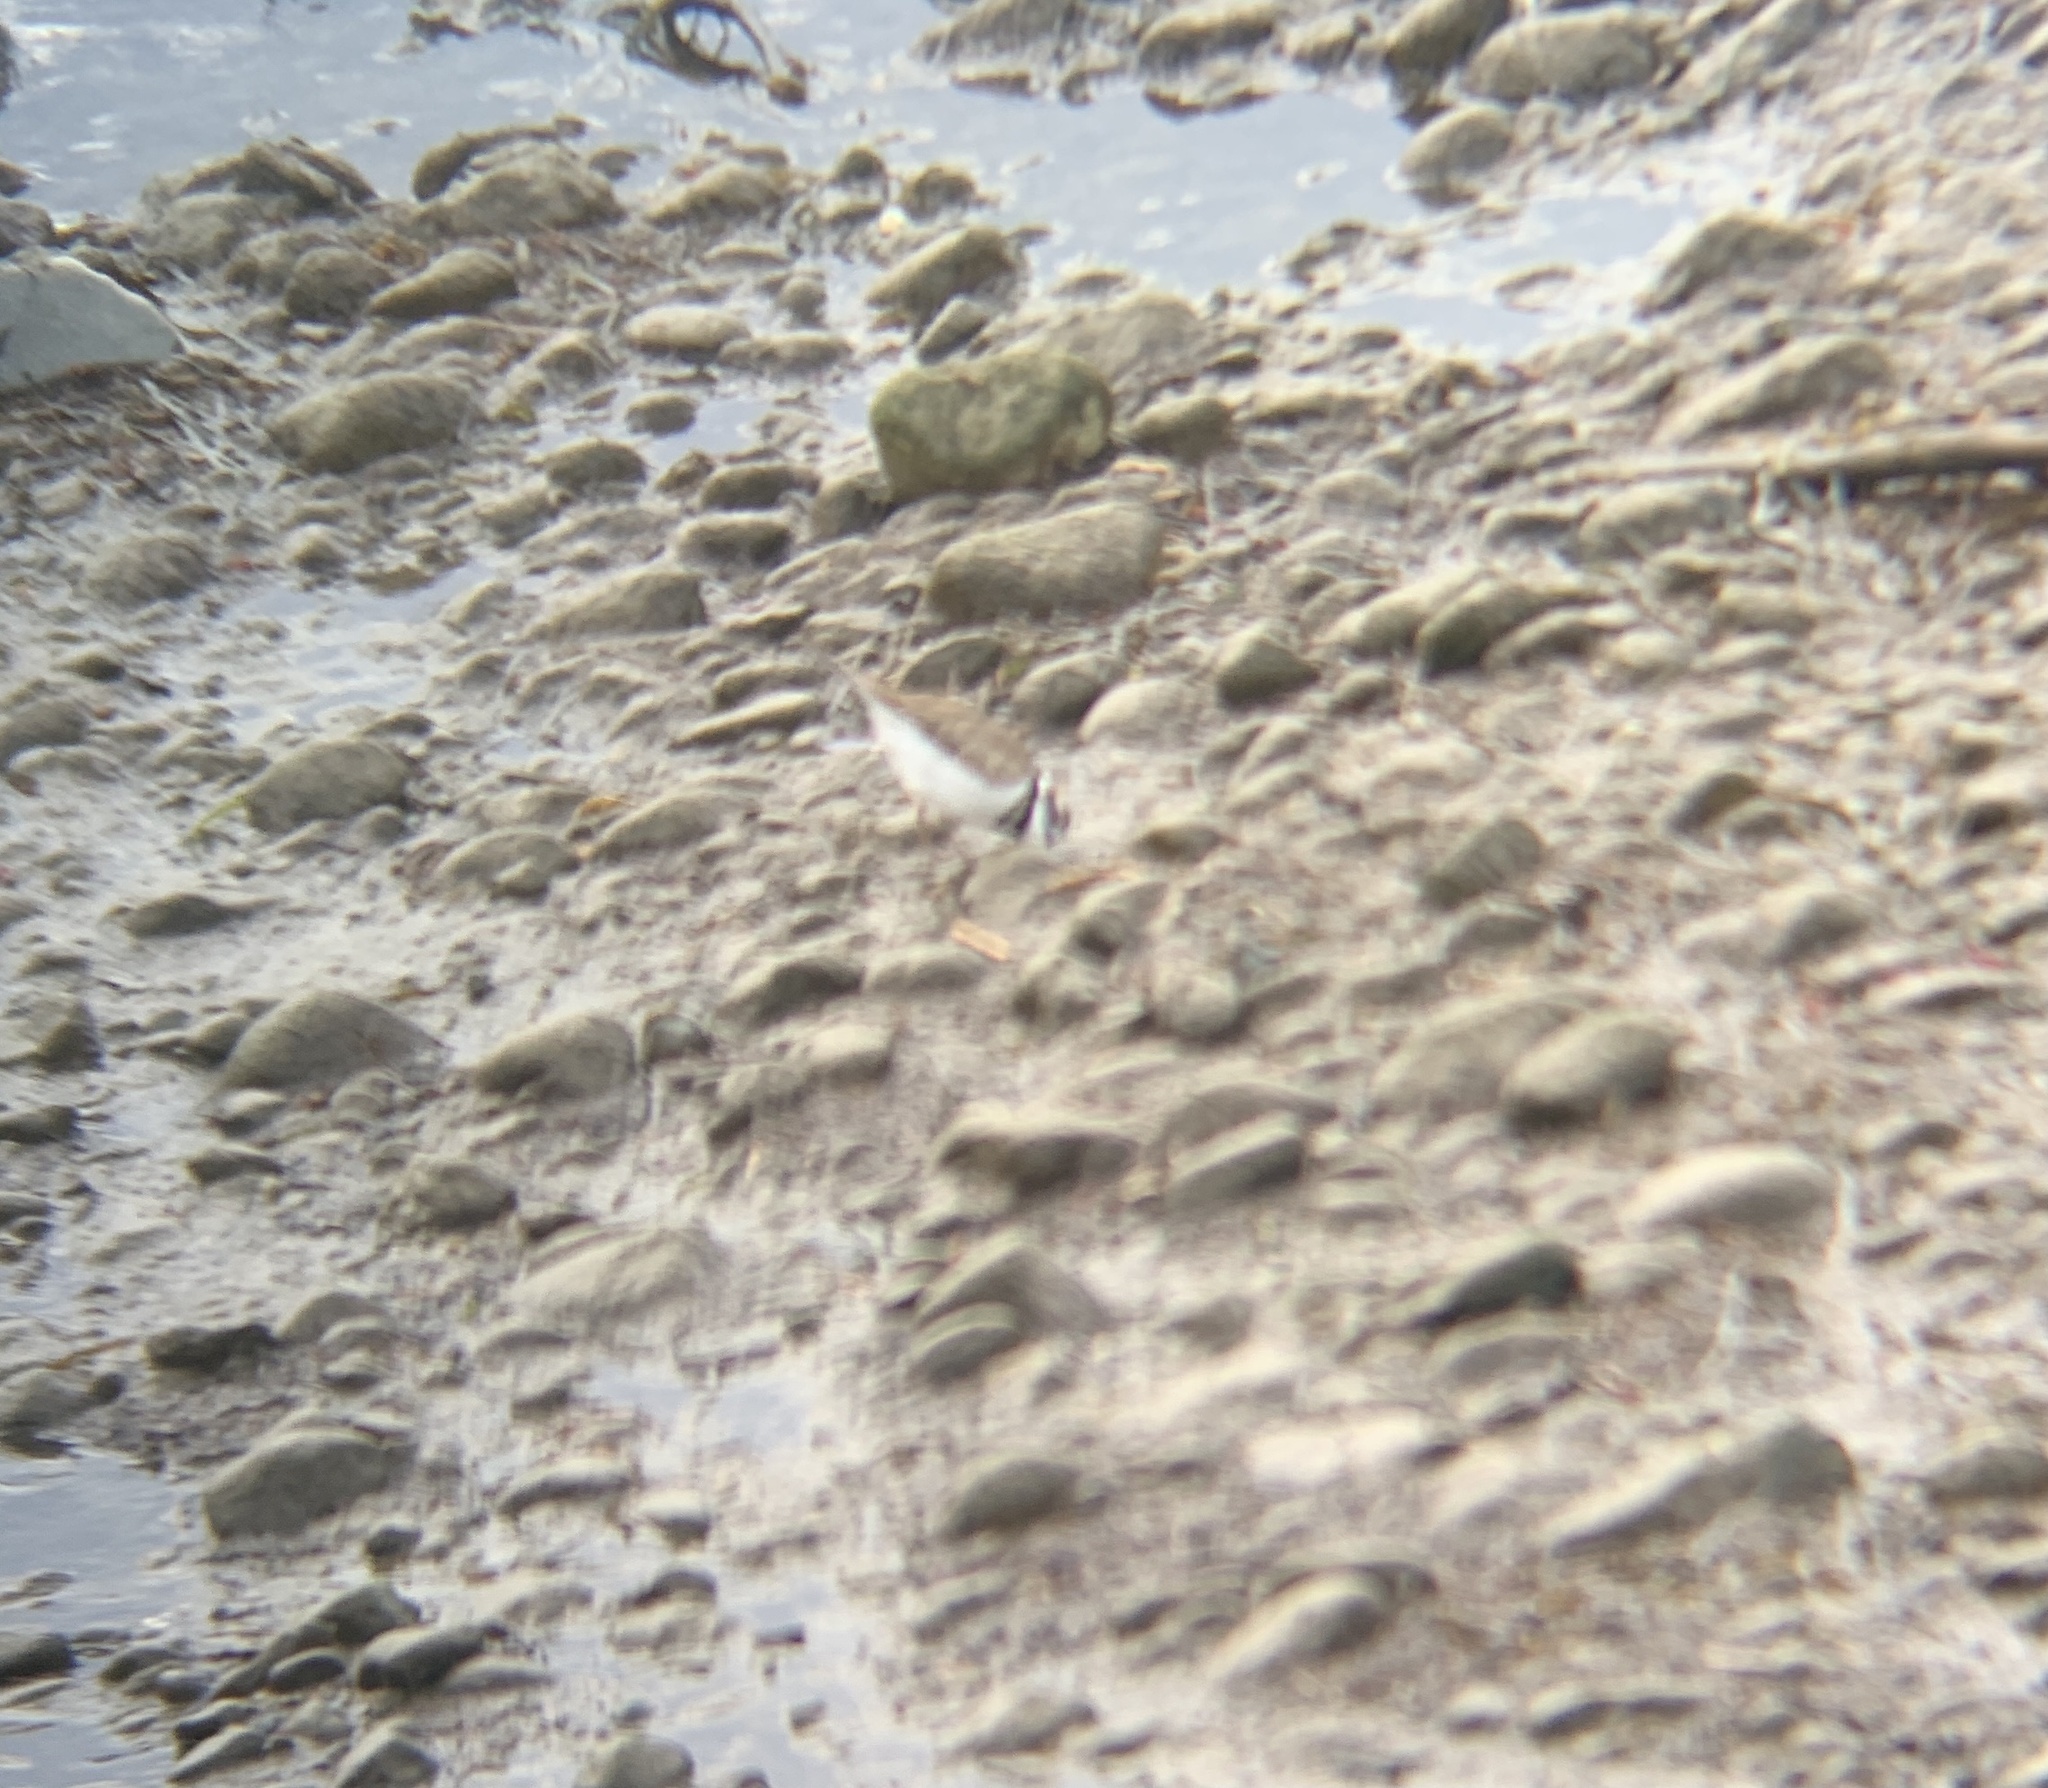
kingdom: Animalia
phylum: Chordata
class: Aves
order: Charadriiformes
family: Charadriidae
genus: Charadrius
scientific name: Charadrius vociferus
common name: Killdeer
